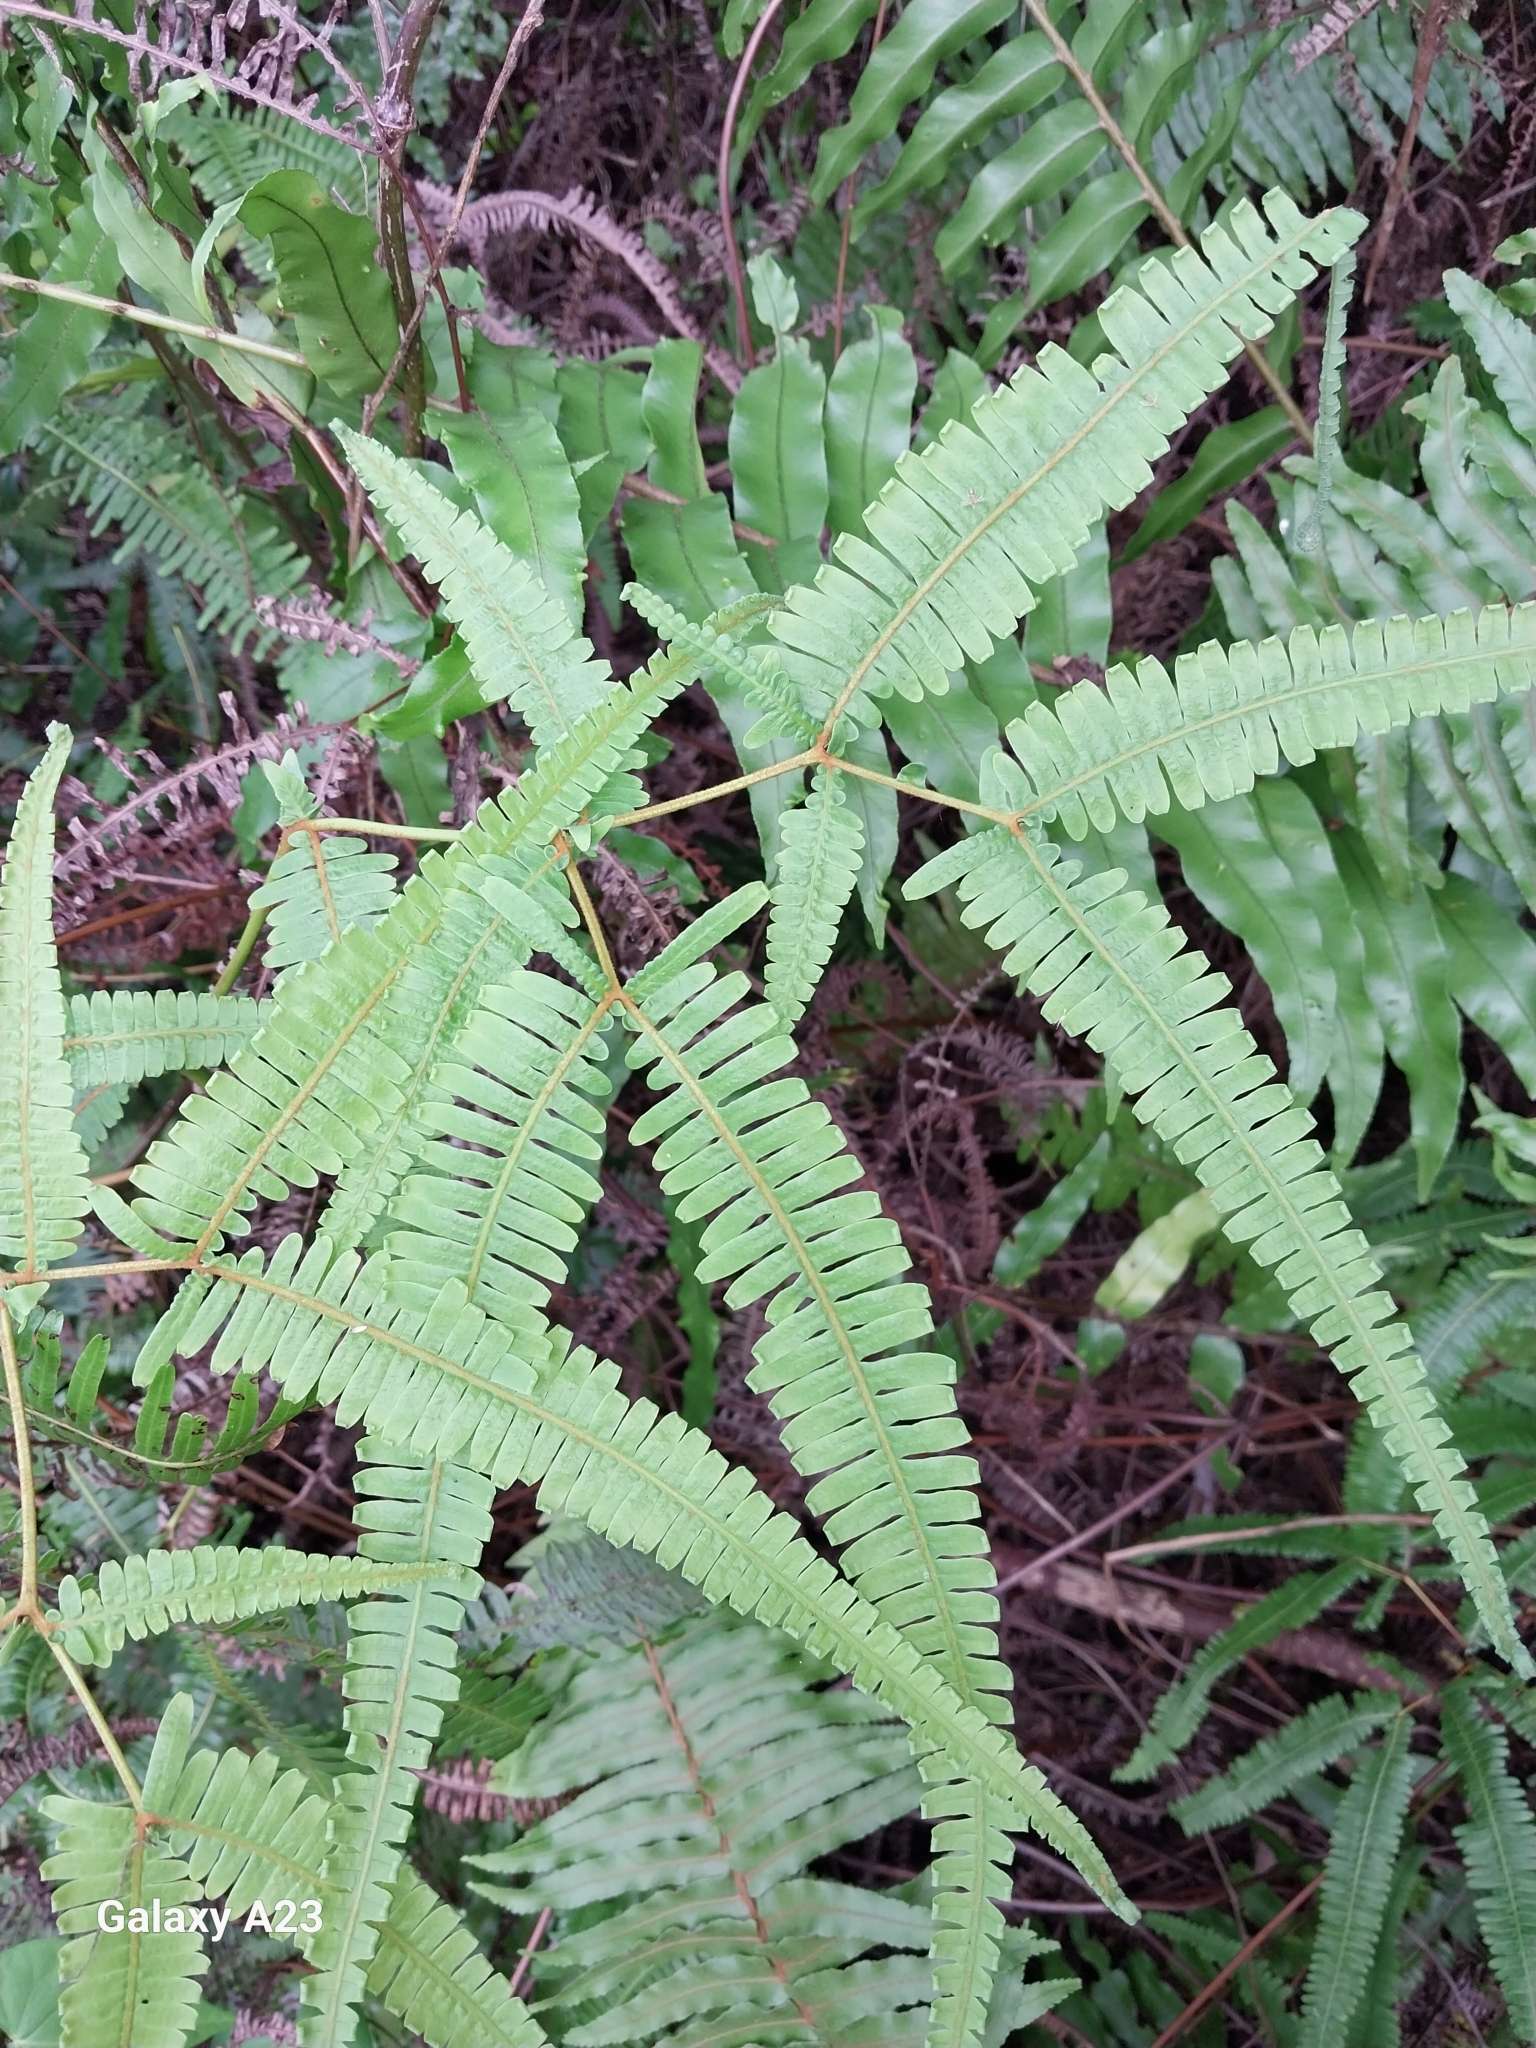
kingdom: Plantae
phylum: Tracheophyta
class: Polypodiopsida
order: Gleicheniales
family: Gleicheniaceae
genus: Dicranopteris
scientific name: Dicranopteris linearis
